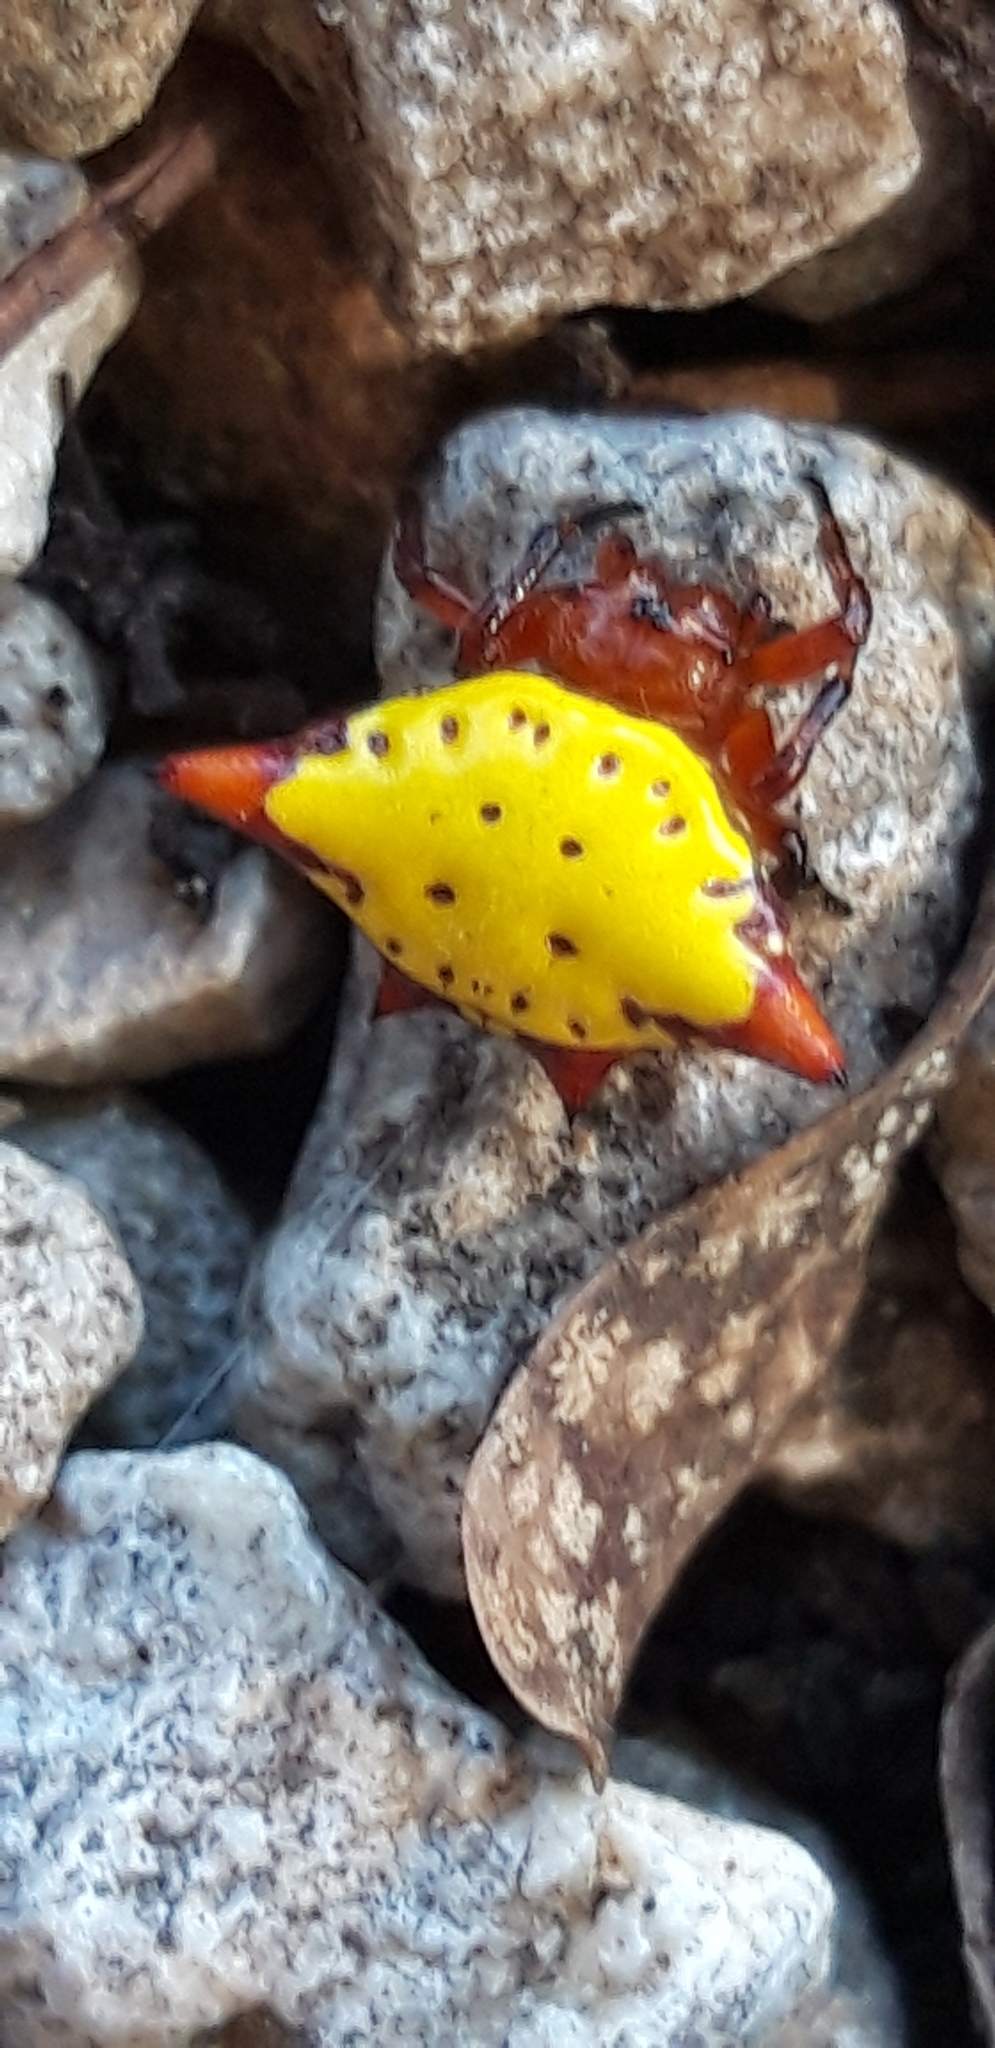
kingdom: Animalia
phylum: Arthropoda
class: Arachnida
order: Araneae
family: Araneidae
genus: Gasteracantha
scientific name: Gasteracantha cancriformis
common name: Orb weavers
